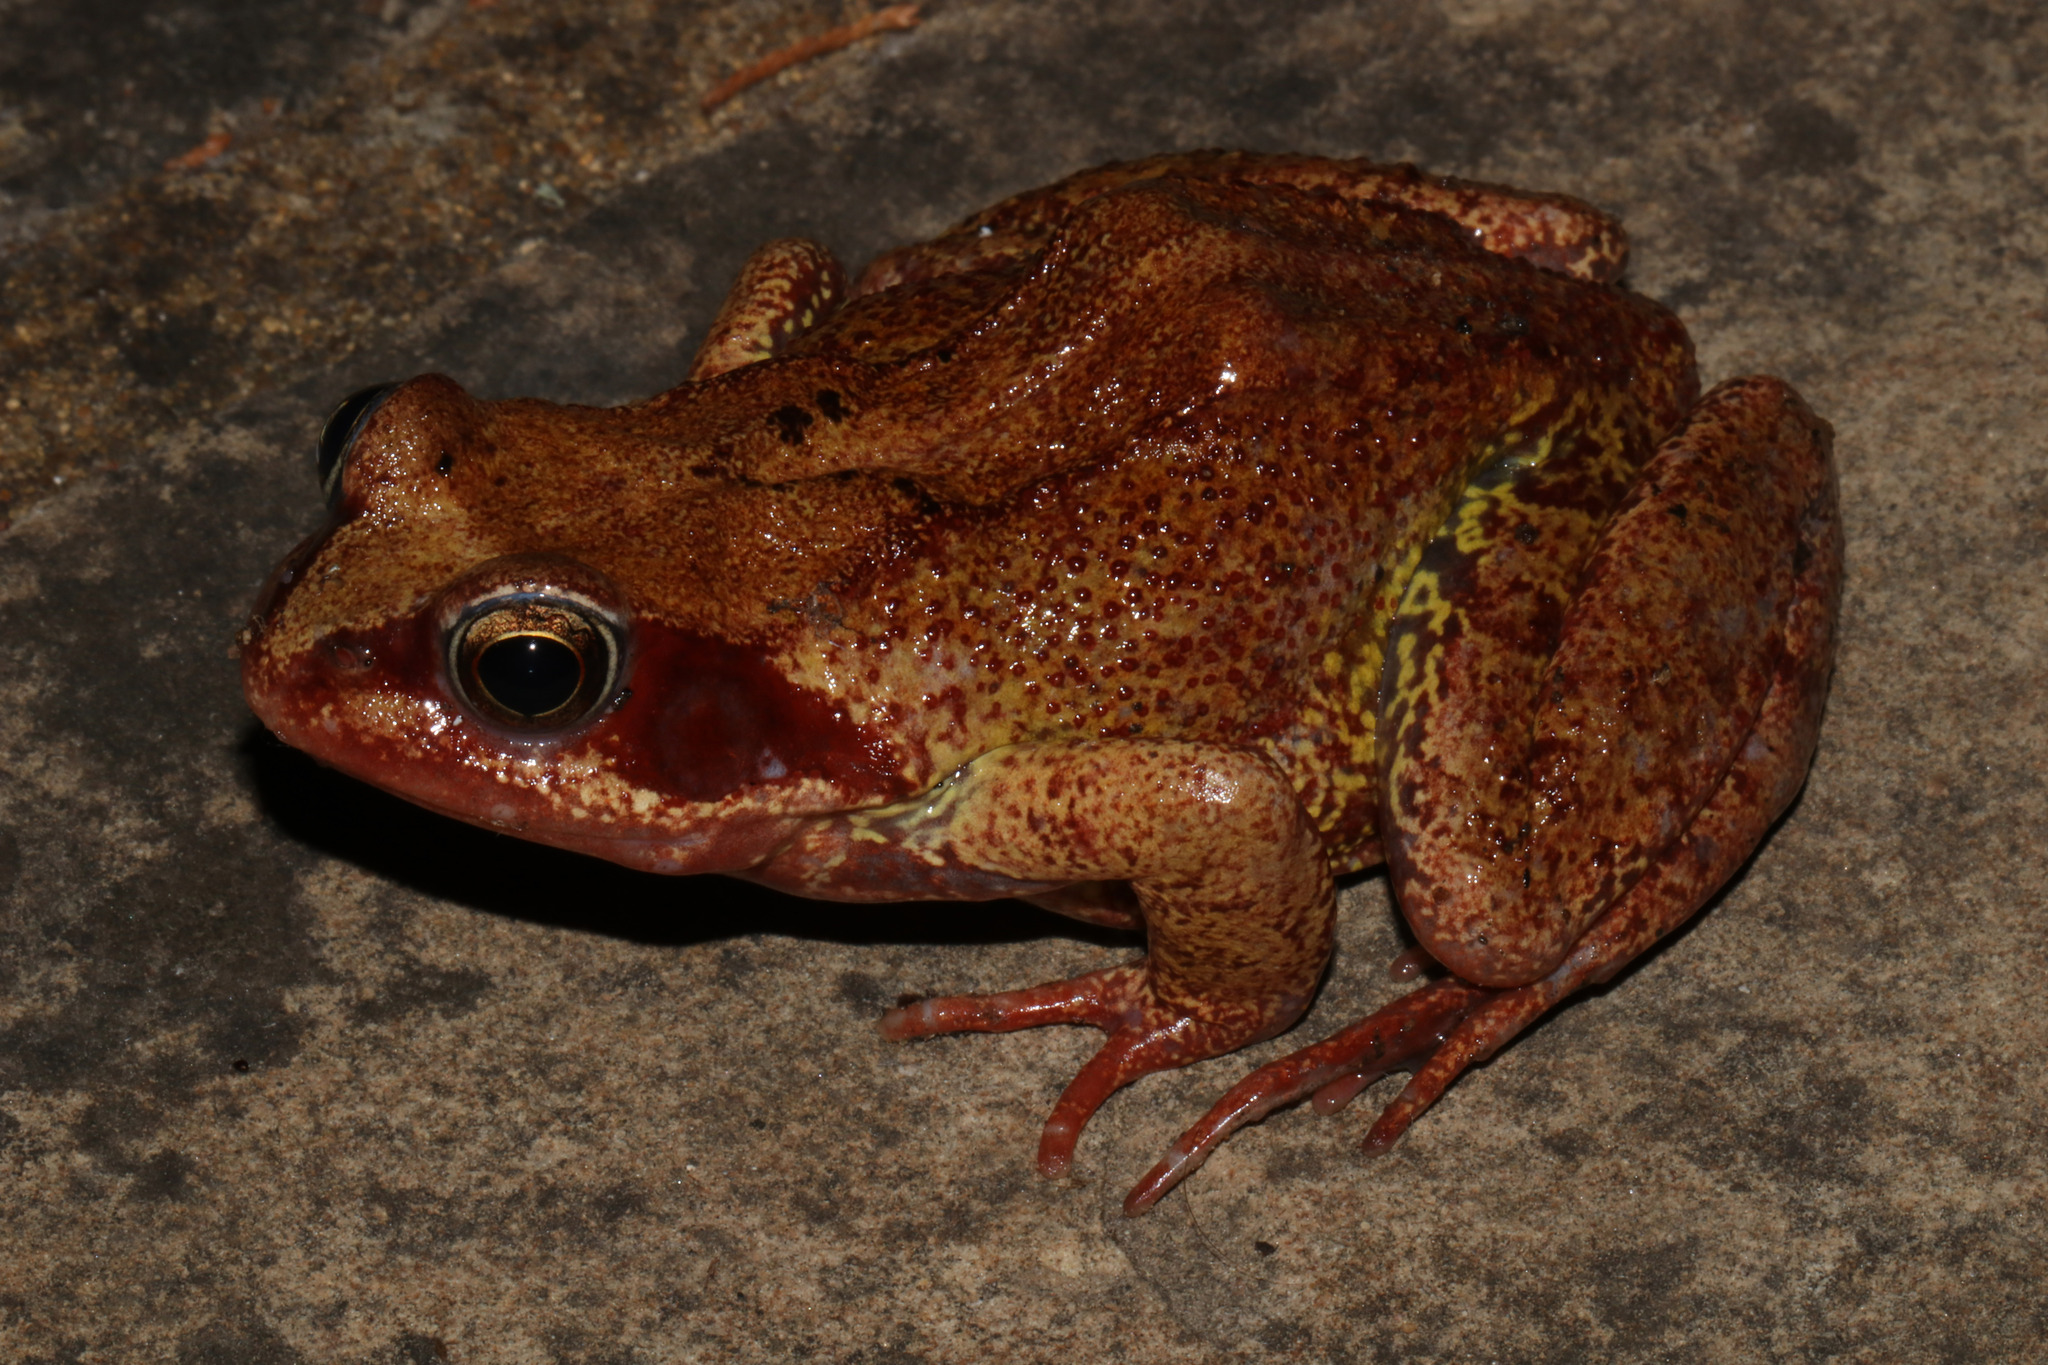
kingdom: Animalia
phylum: Chordata
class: Amphibia
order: Anura
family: Ranidae
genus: Rana
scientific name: Rana temporaria
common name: Common frog
